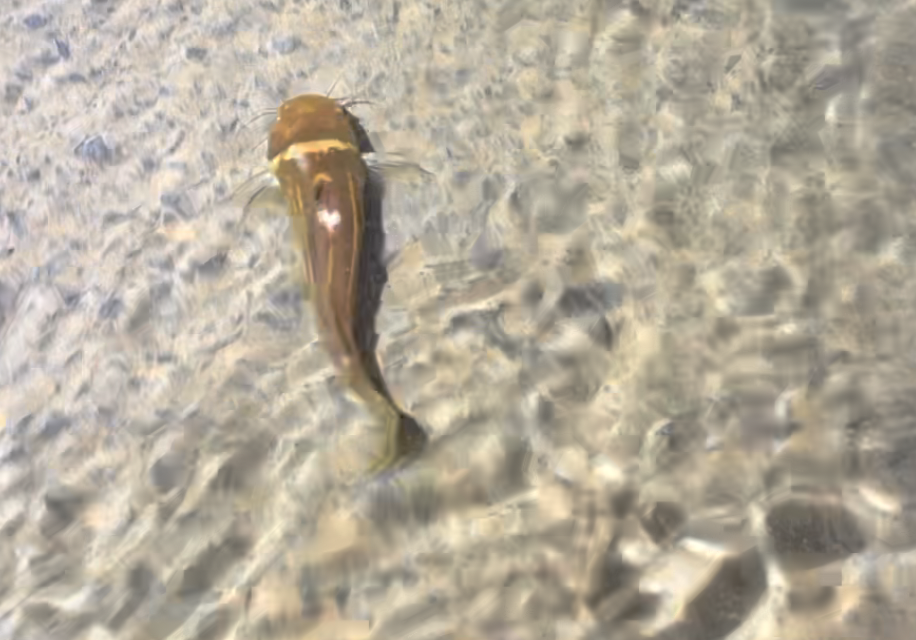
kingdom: Animalia
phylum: Chordata
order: Siluriformes
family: Bagridae
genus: Tachysurus
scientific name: Tachysurus trilineatus
